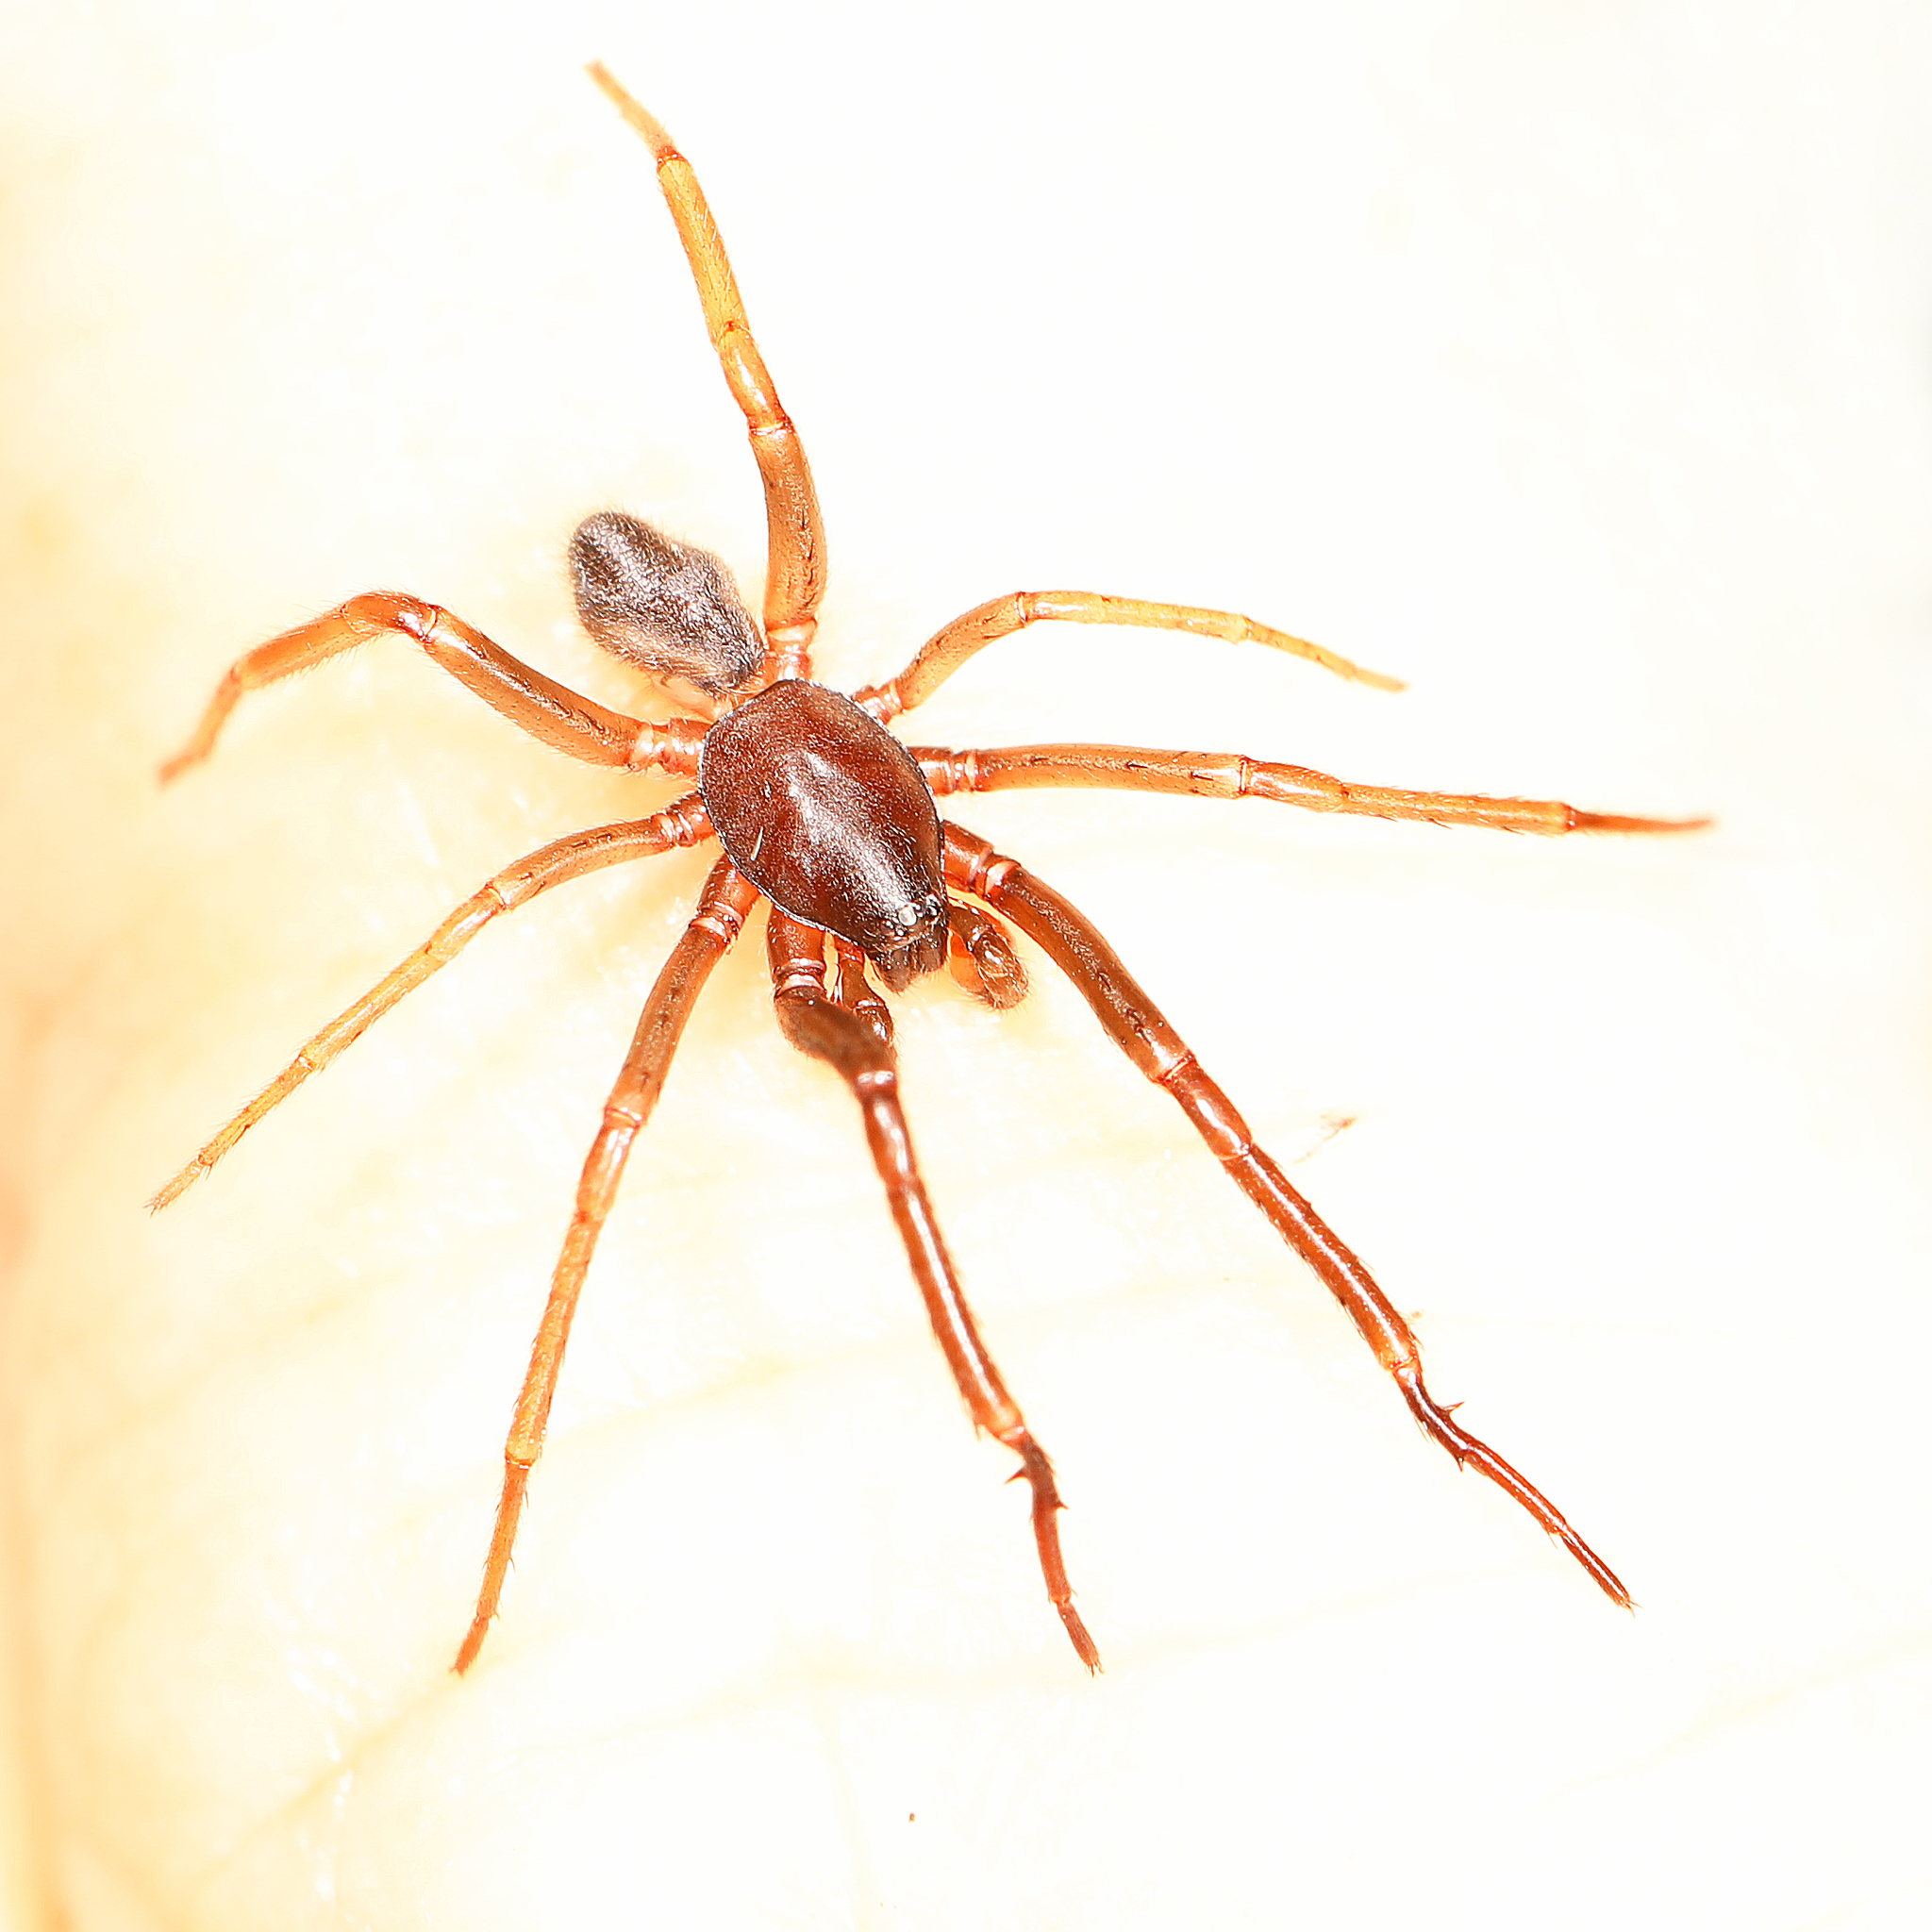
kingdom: Animalia
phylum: Arthropoda
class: Arachnida
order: Araneae
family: Segestriidae
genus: Ariadna
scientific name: Ariadna bicolor
